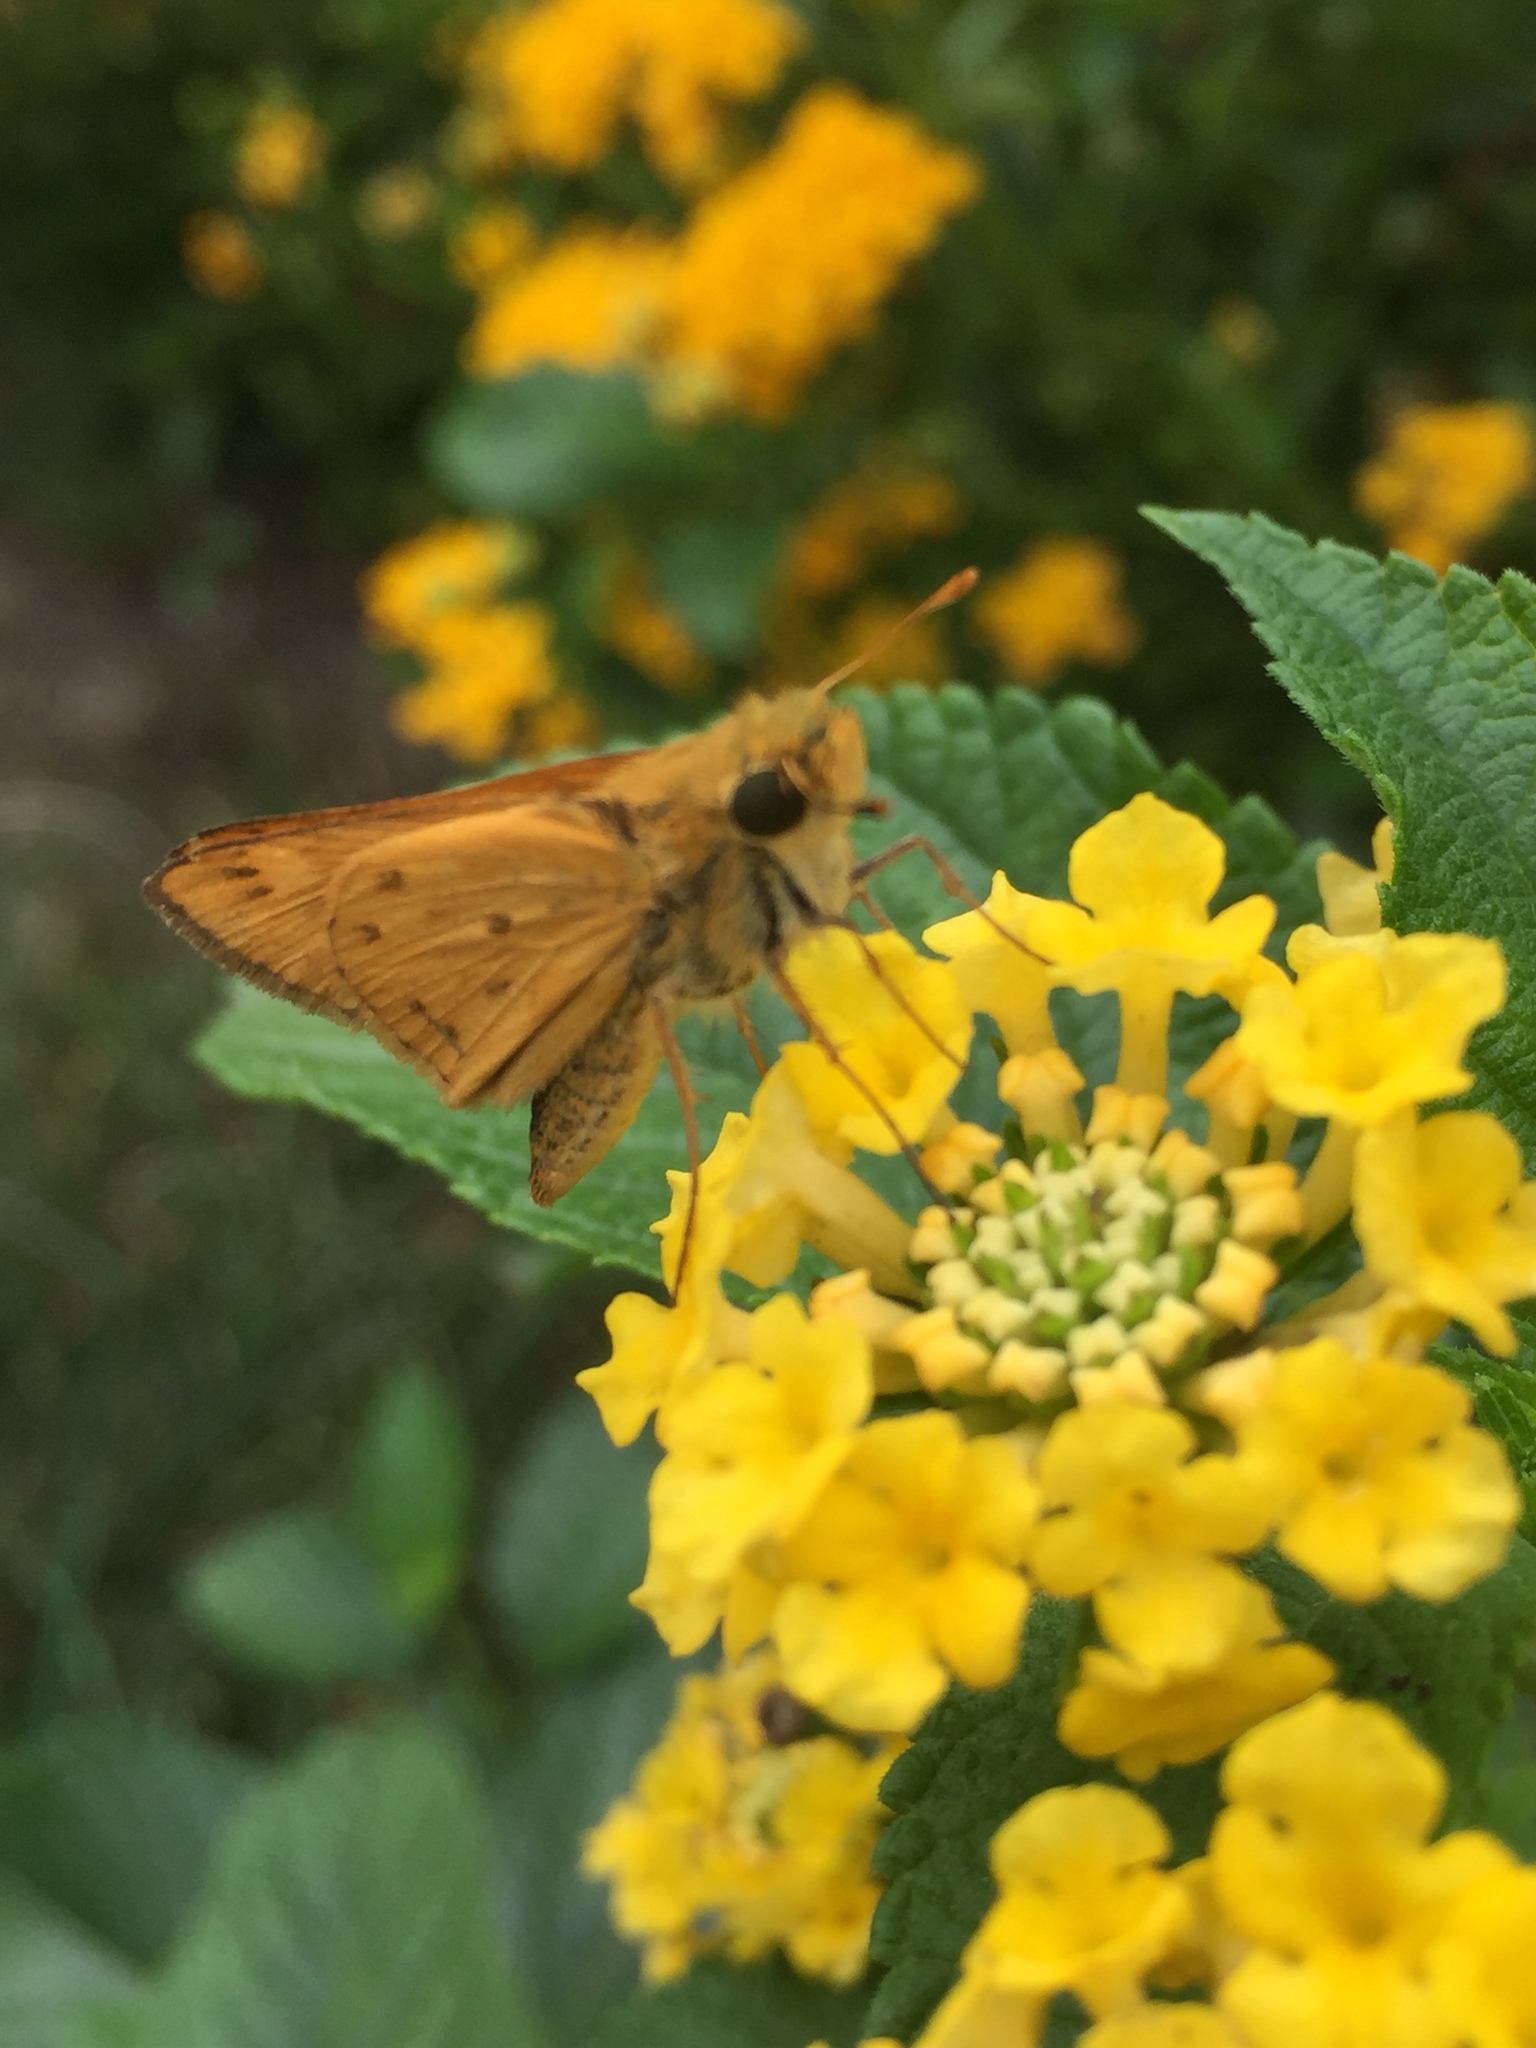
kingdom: Animalia
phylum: Arthropoda
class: Insecta
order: Lepidoptera
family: Hesperiidae
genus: Hylephila
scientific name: Hylephila phyleus
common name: Fiery skipper
